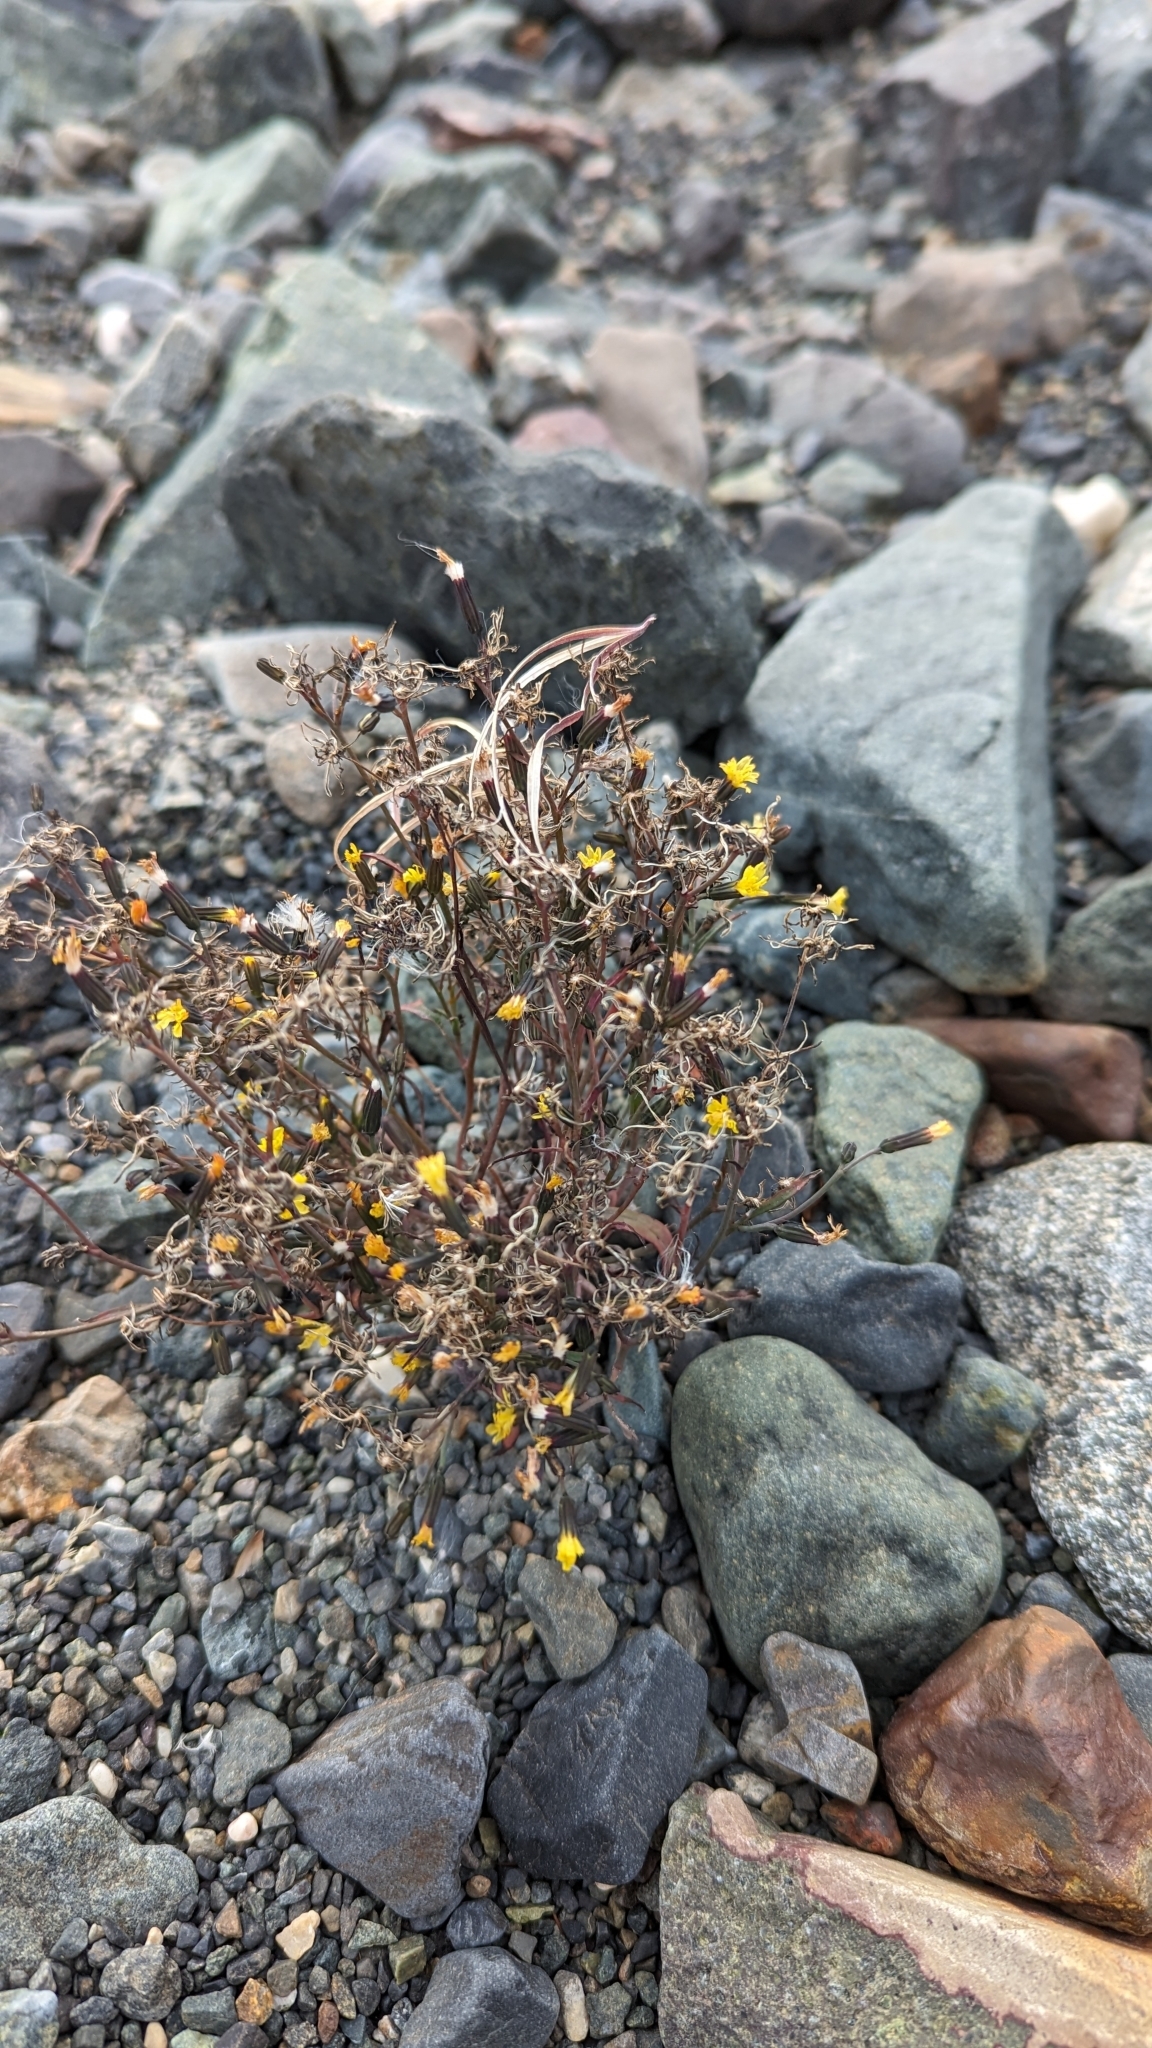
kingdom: Plantae
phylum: Tracheophyta
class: Magnoliopsida
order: Asterales
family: Asteraceae
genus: Askellia
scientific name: Askellia elegans
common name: Elegant hawksbeard
